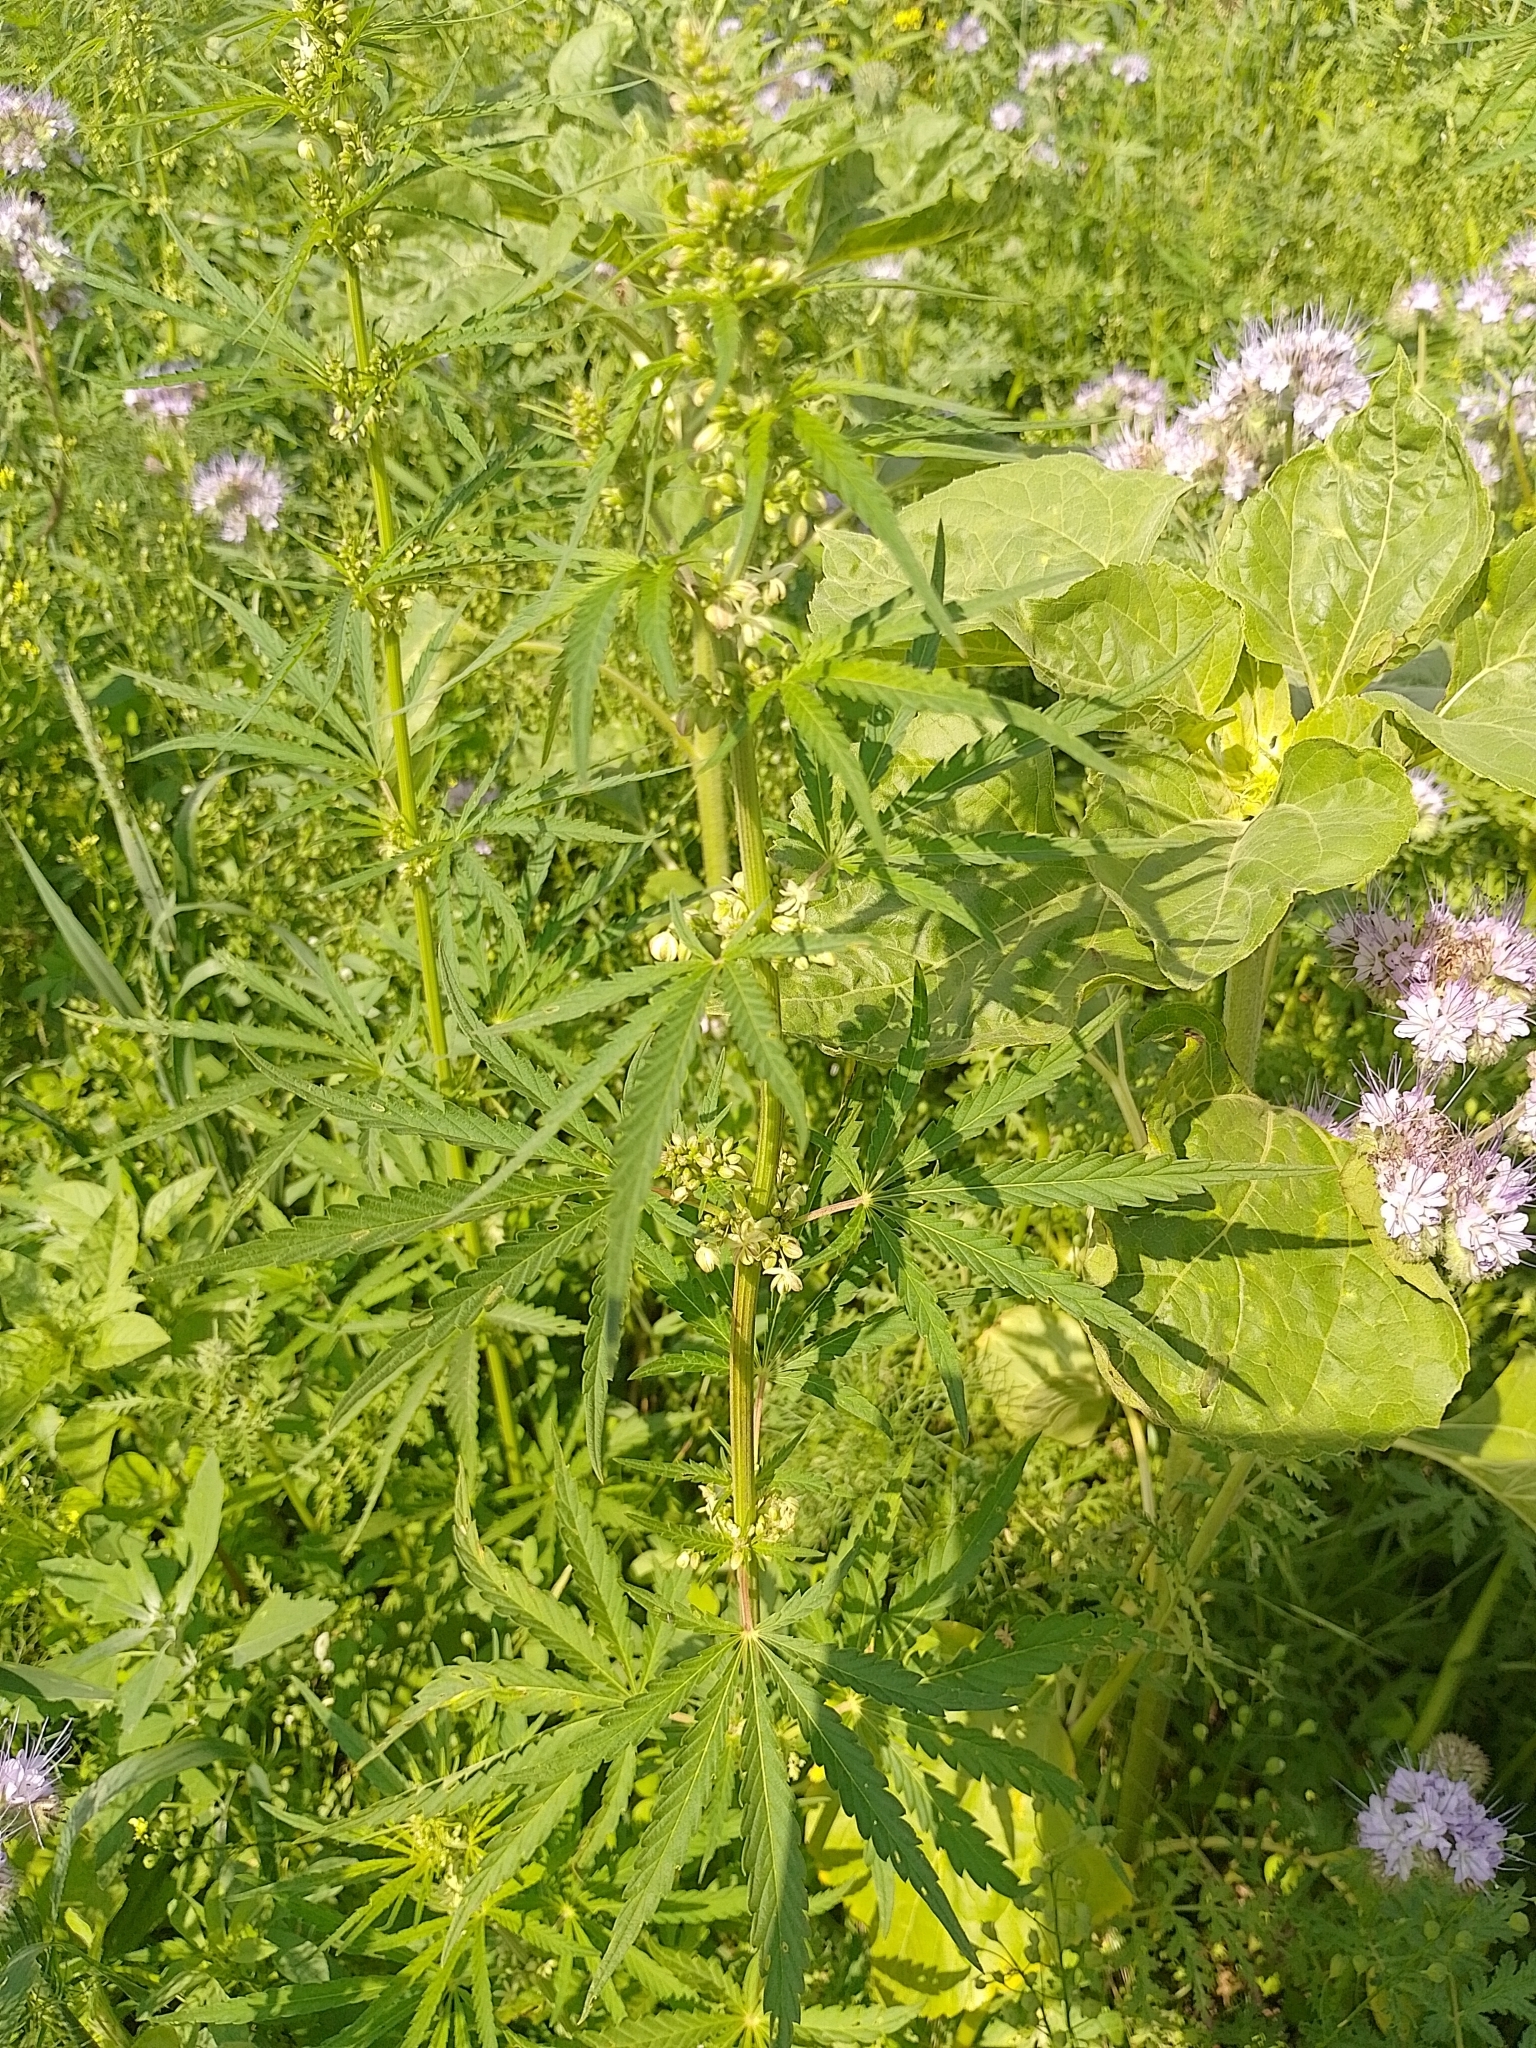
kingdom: Plantae
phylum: Tracheophyta
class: Magnoliopsida
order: Rosales
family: Cannabaceae
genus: Cannabis
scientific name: Cannabis sativa
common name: Hemp
